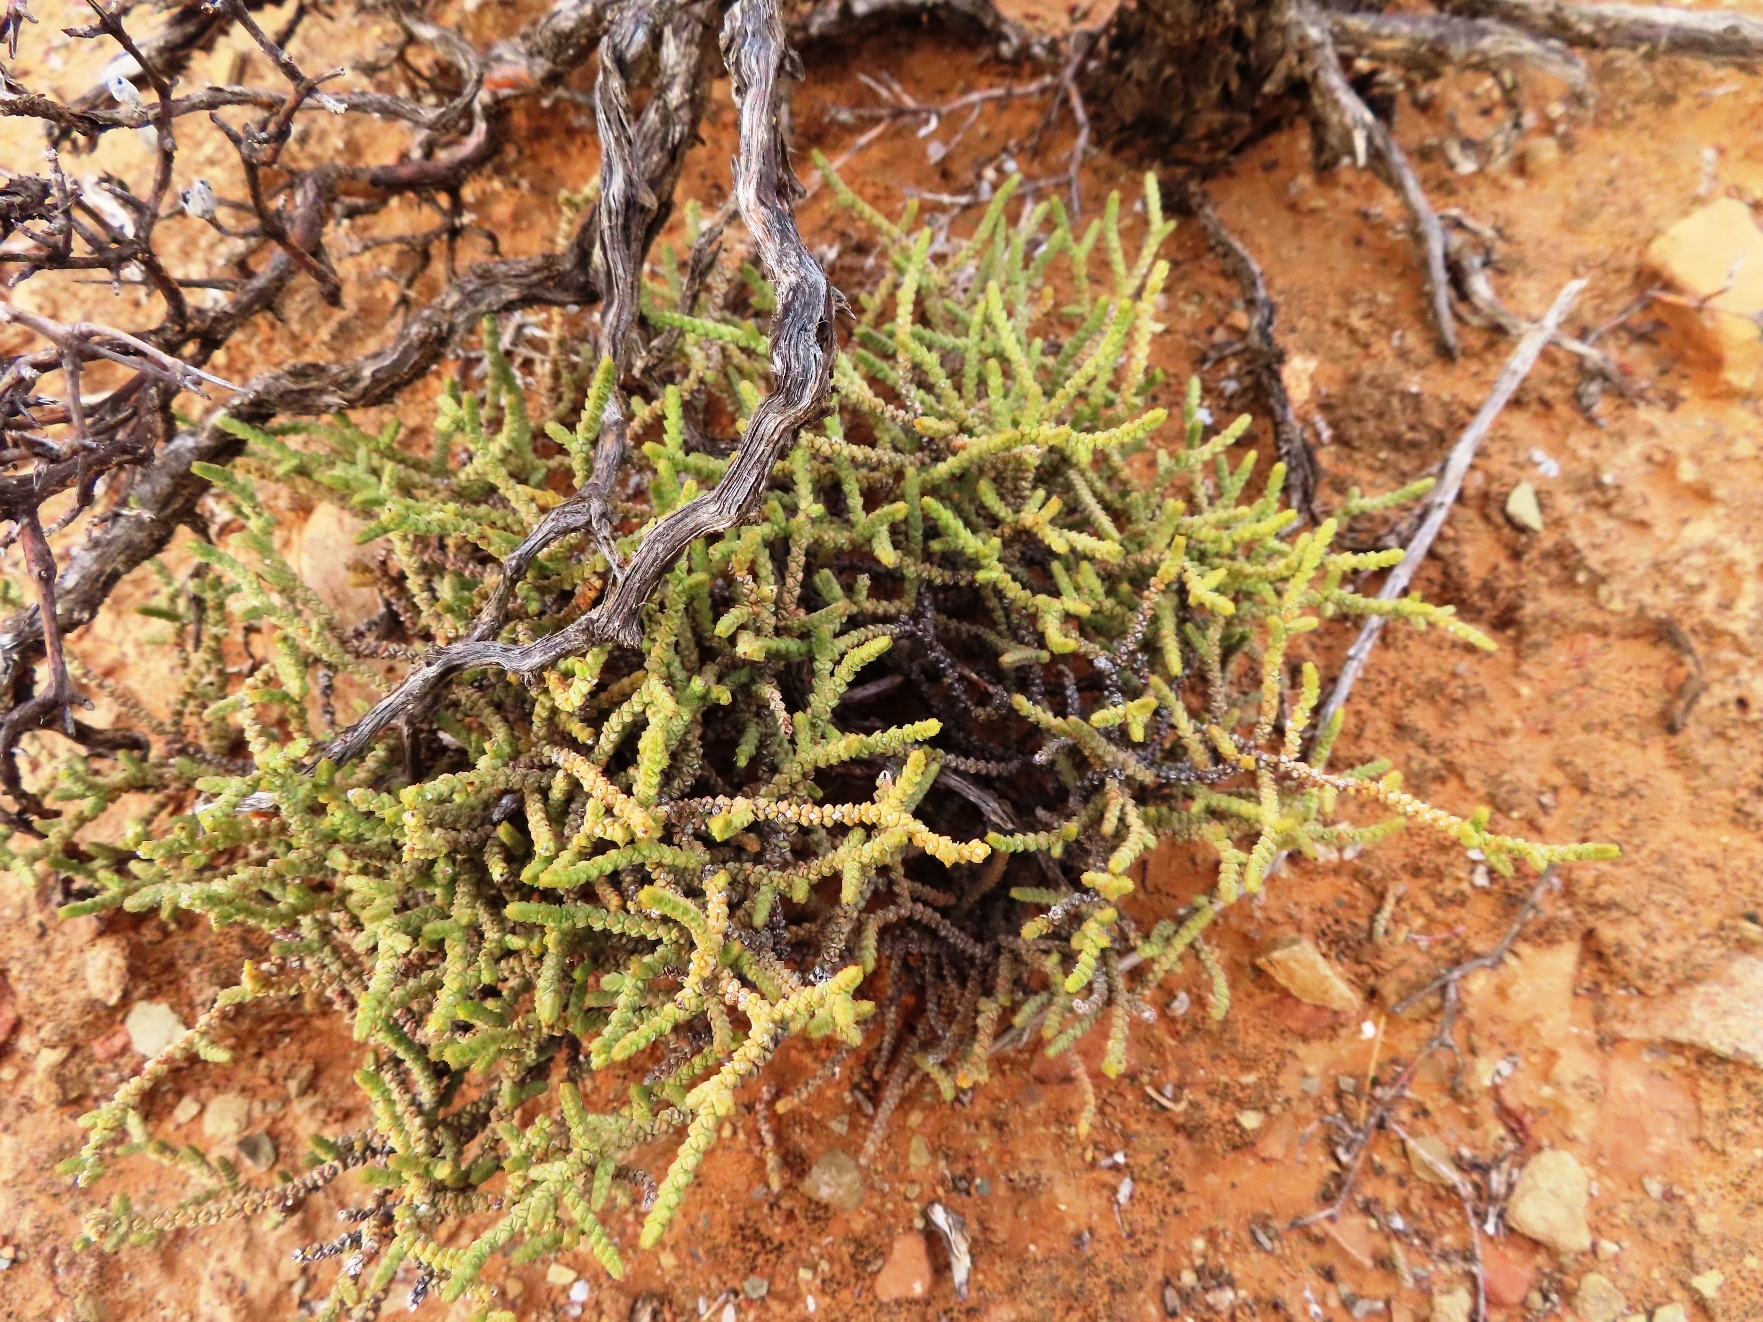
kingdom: Plantae
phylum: Tracheophyta
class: Magnoliopsida
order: Saxifragales
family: Crassulaceae
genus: Crassula
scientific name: Crassula muscosa
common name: Toy-cypress
